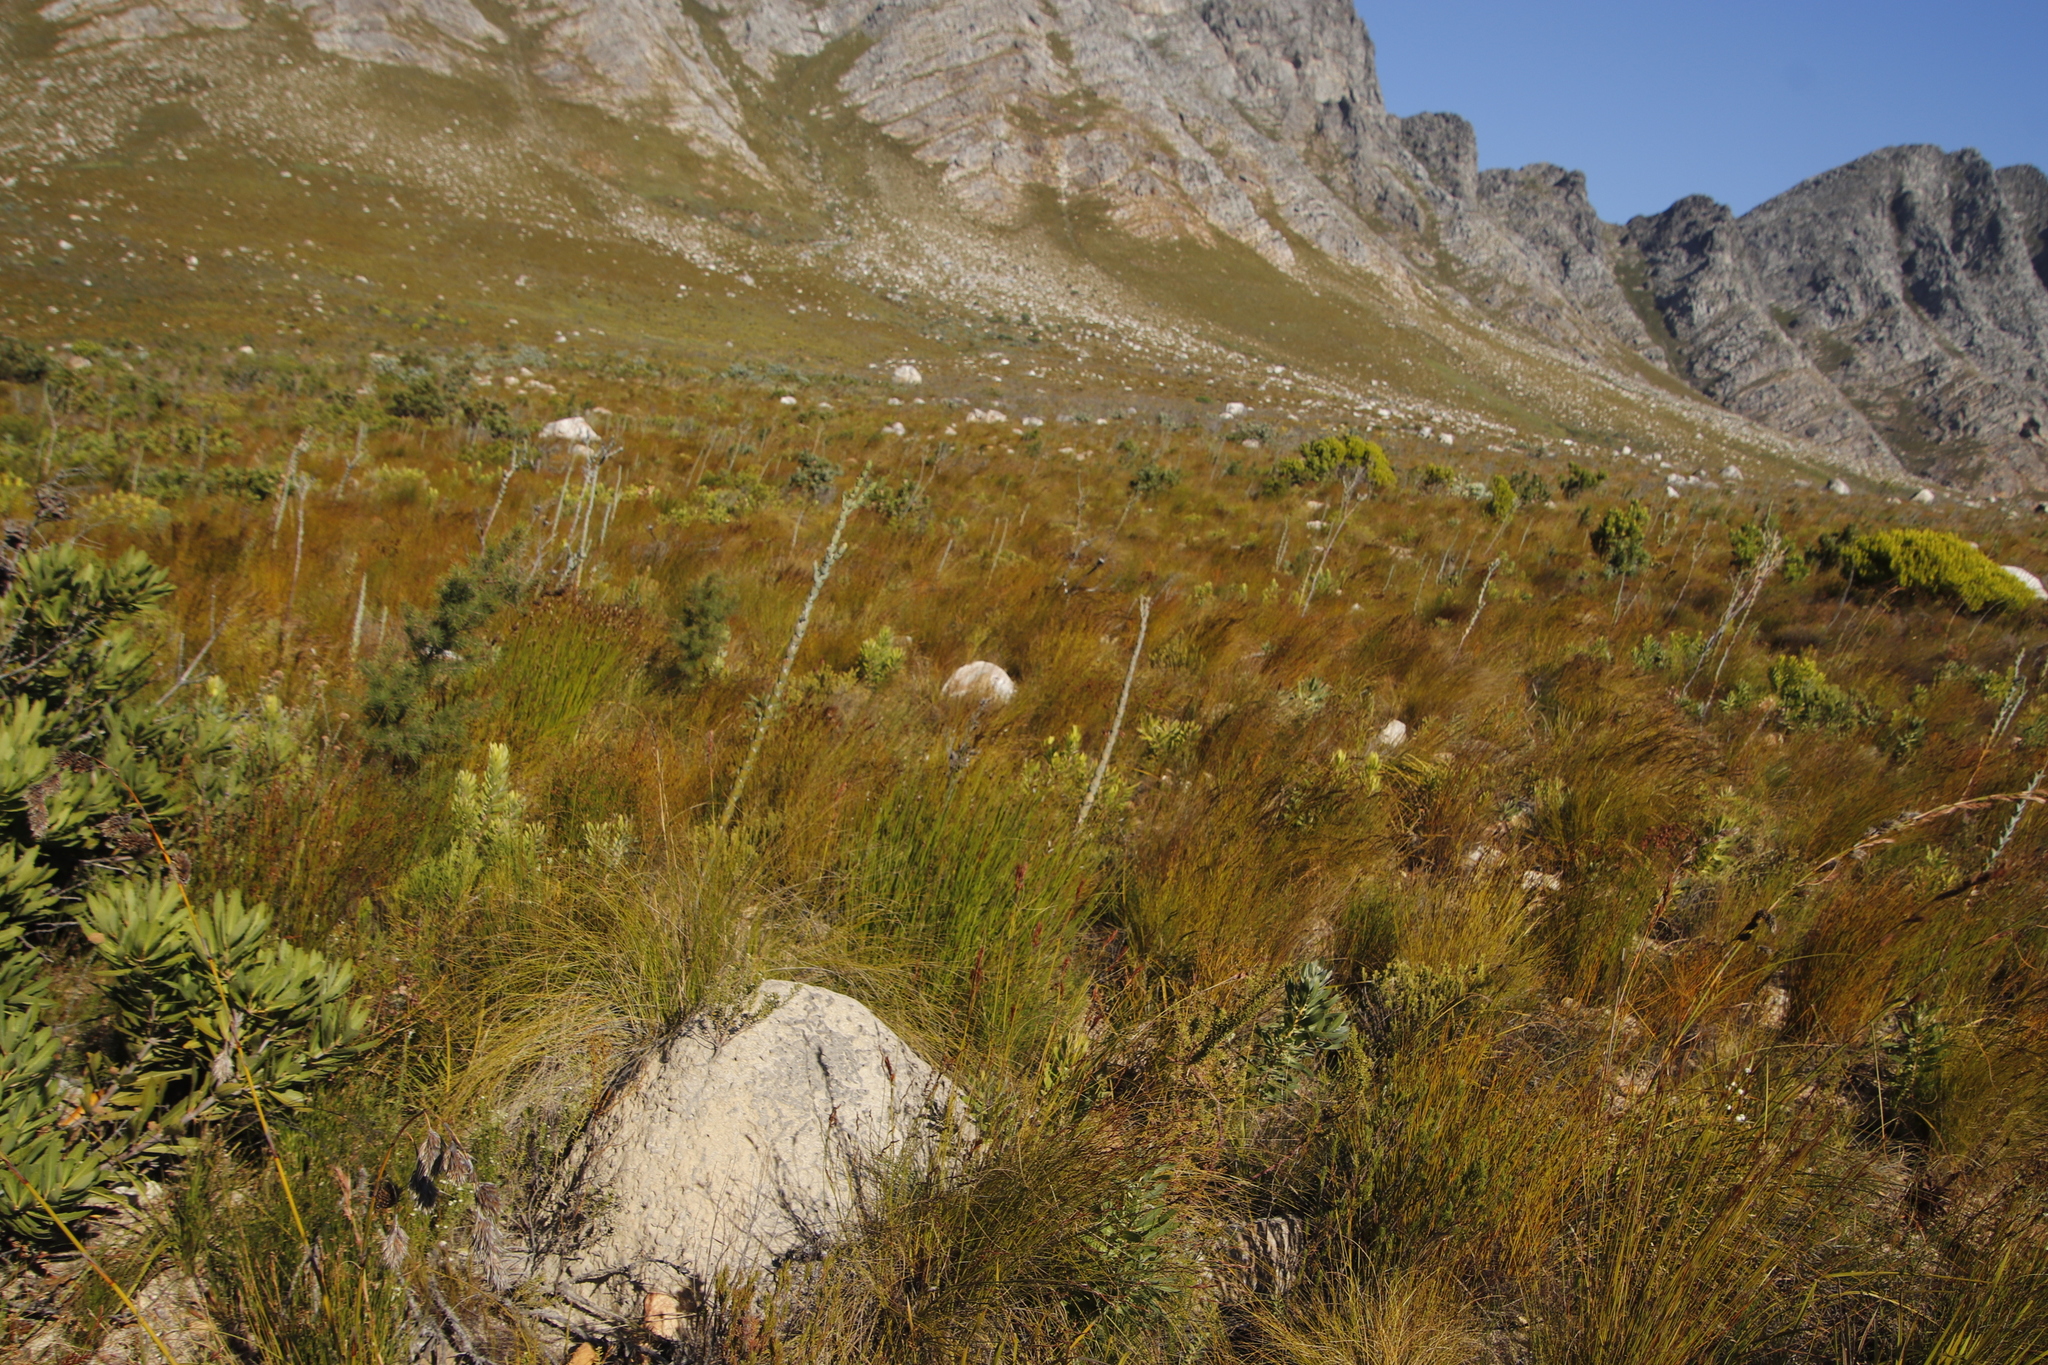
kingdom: Plantae
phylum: Tracheophyta
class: Magnoliopsida
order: Santalales
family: Thesiaceae
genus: Thesium
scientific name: Thesium euphorbioides
